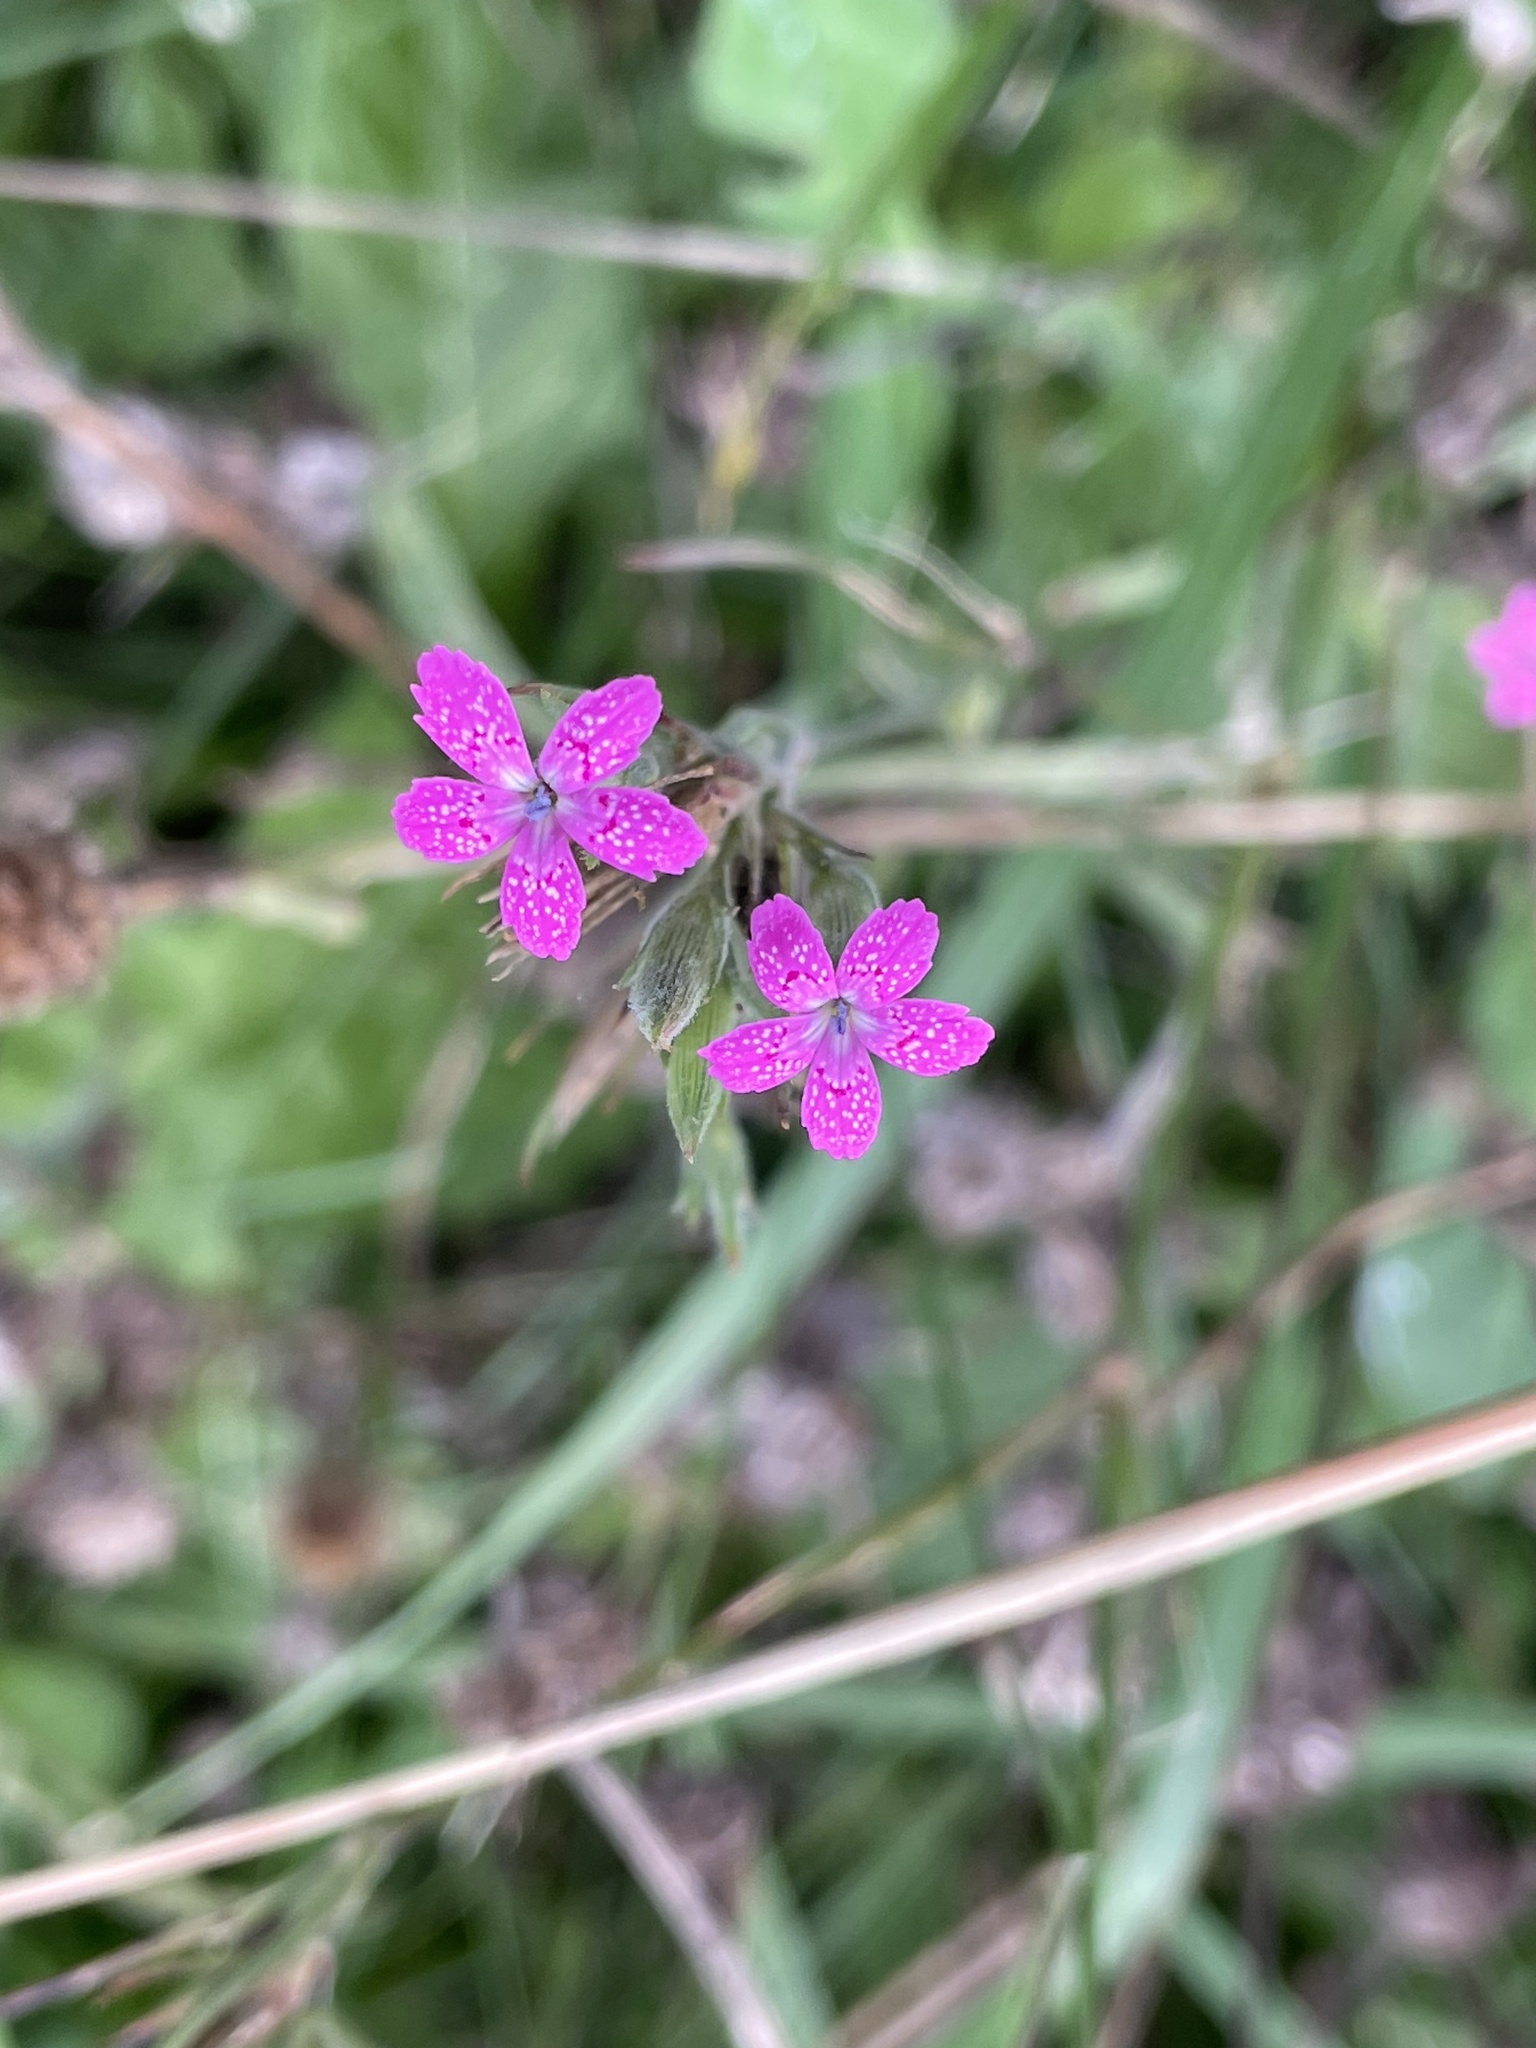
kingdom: Plantae
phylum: Tracheophyta
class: Magnoliopsida
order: Caryophyllales
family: Caryophyllaceae
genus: Dianthus
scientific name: Dianthus armeria
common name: Deptford pink
